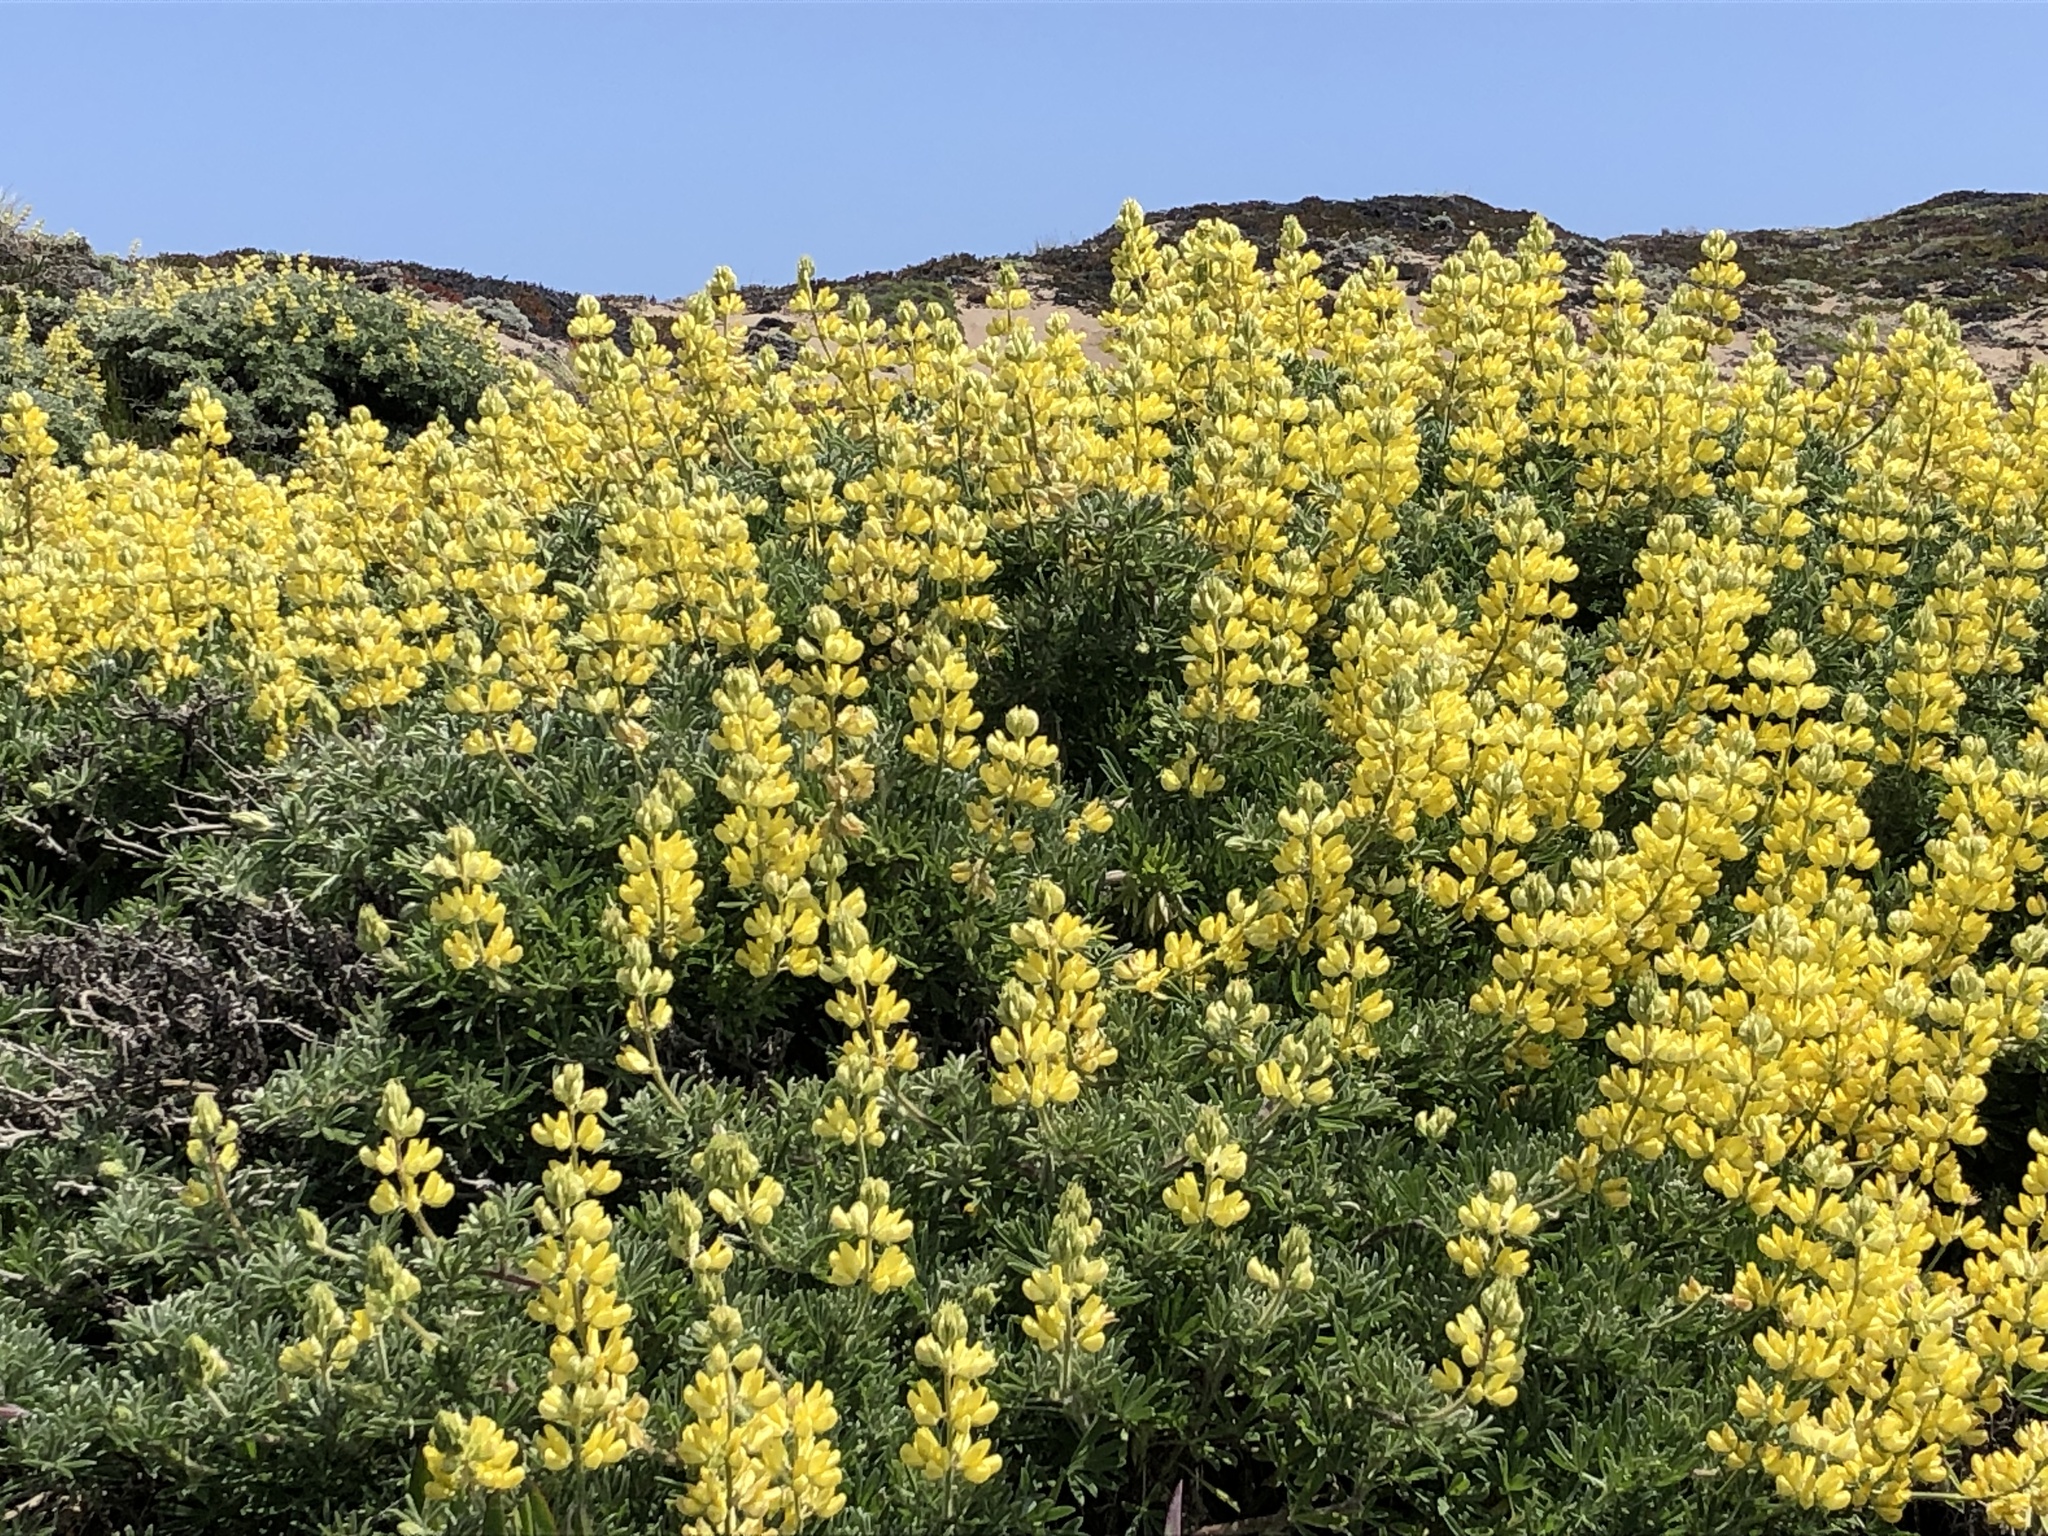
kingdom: Plantae
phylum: Tracheophyta
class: Magnoliopsida
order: Fabales
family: Fabaceae
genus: Lupinus
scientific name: Lupinus arboreus
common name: Yellow bush lupine
